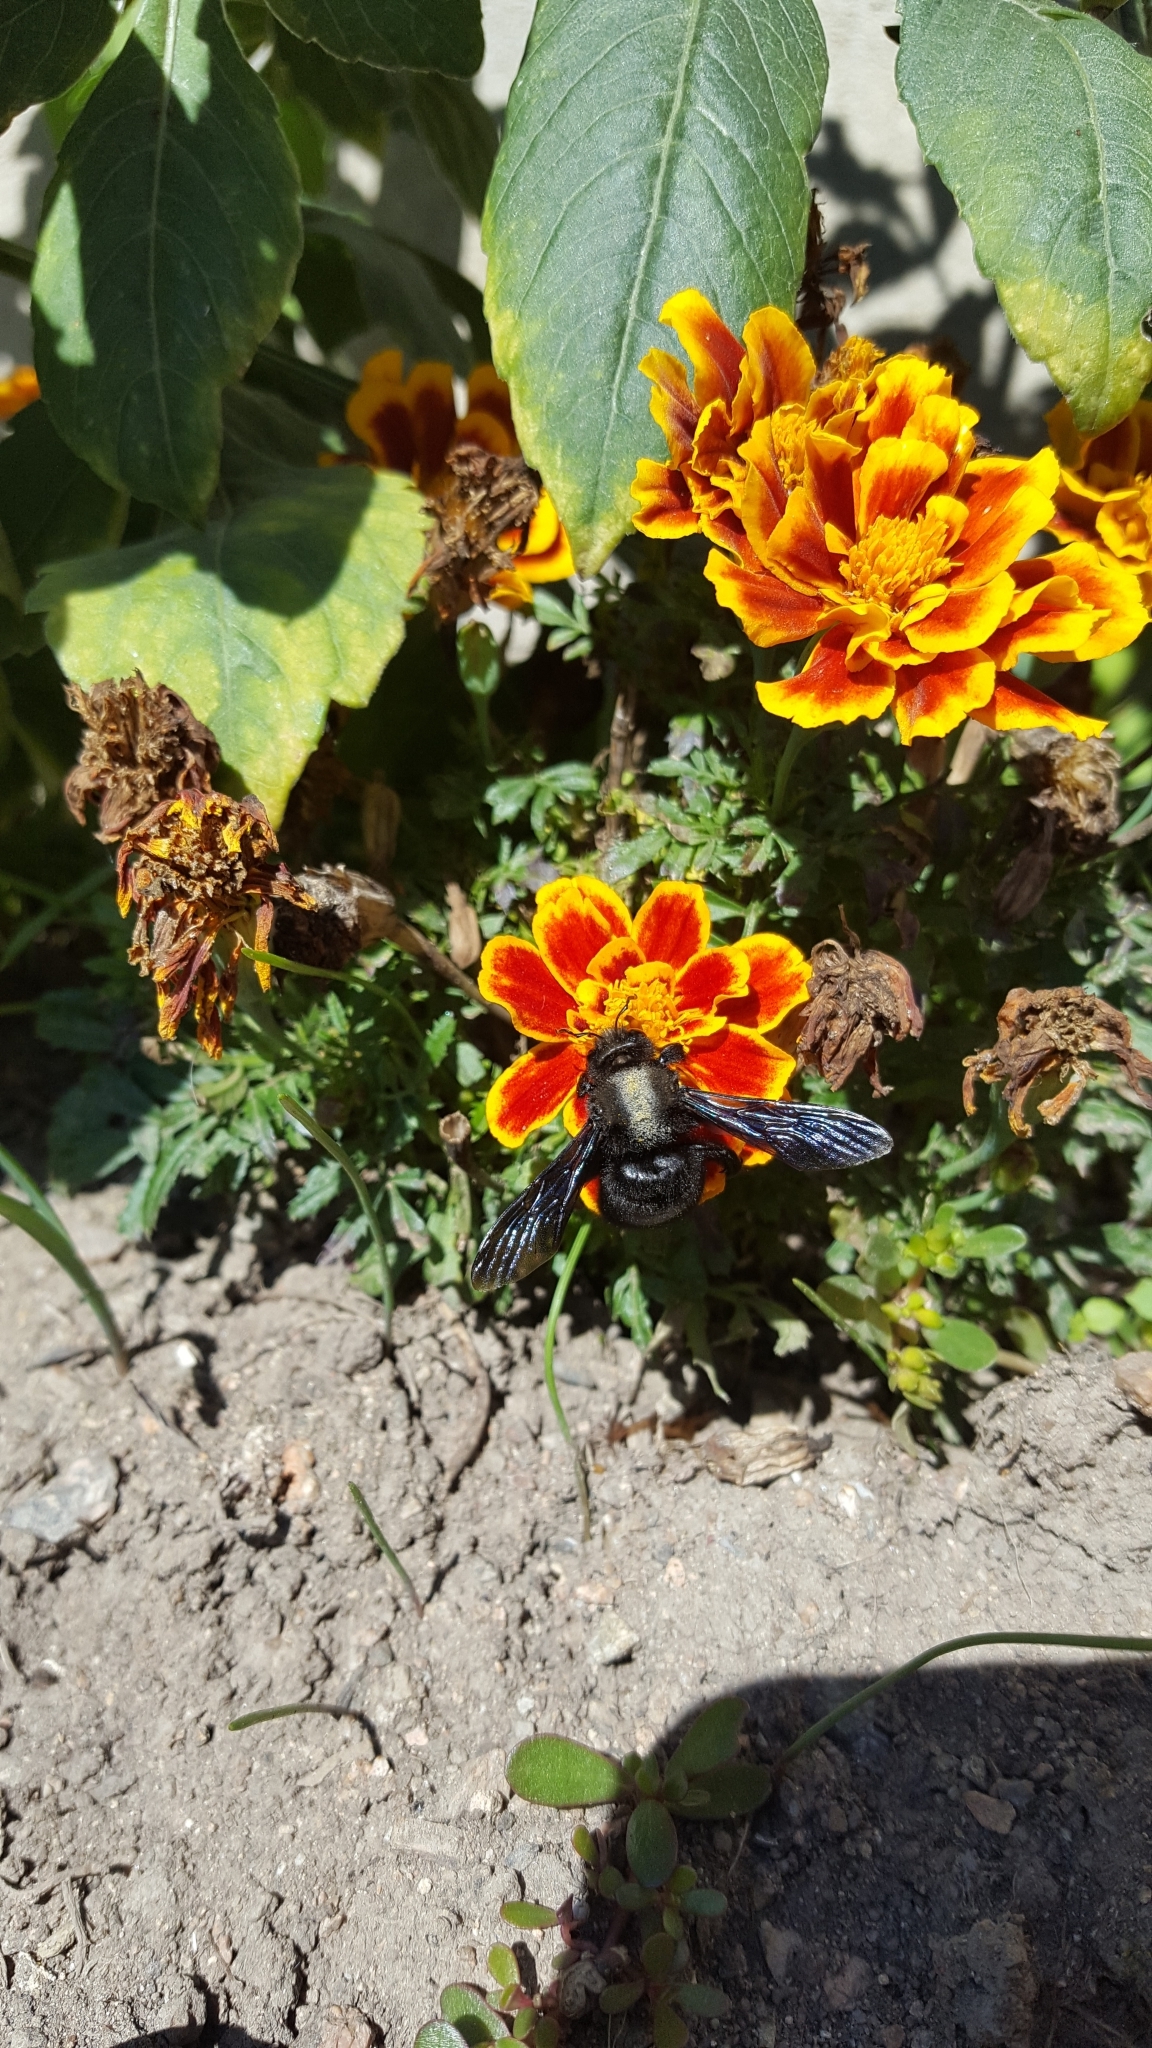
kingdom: Animalia
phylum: Arthropoda
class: Insecta
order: Hymenoptera
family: Apidae
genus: Xylocopa
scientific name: Xylocopa violacea
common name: Violet carpenter bee
